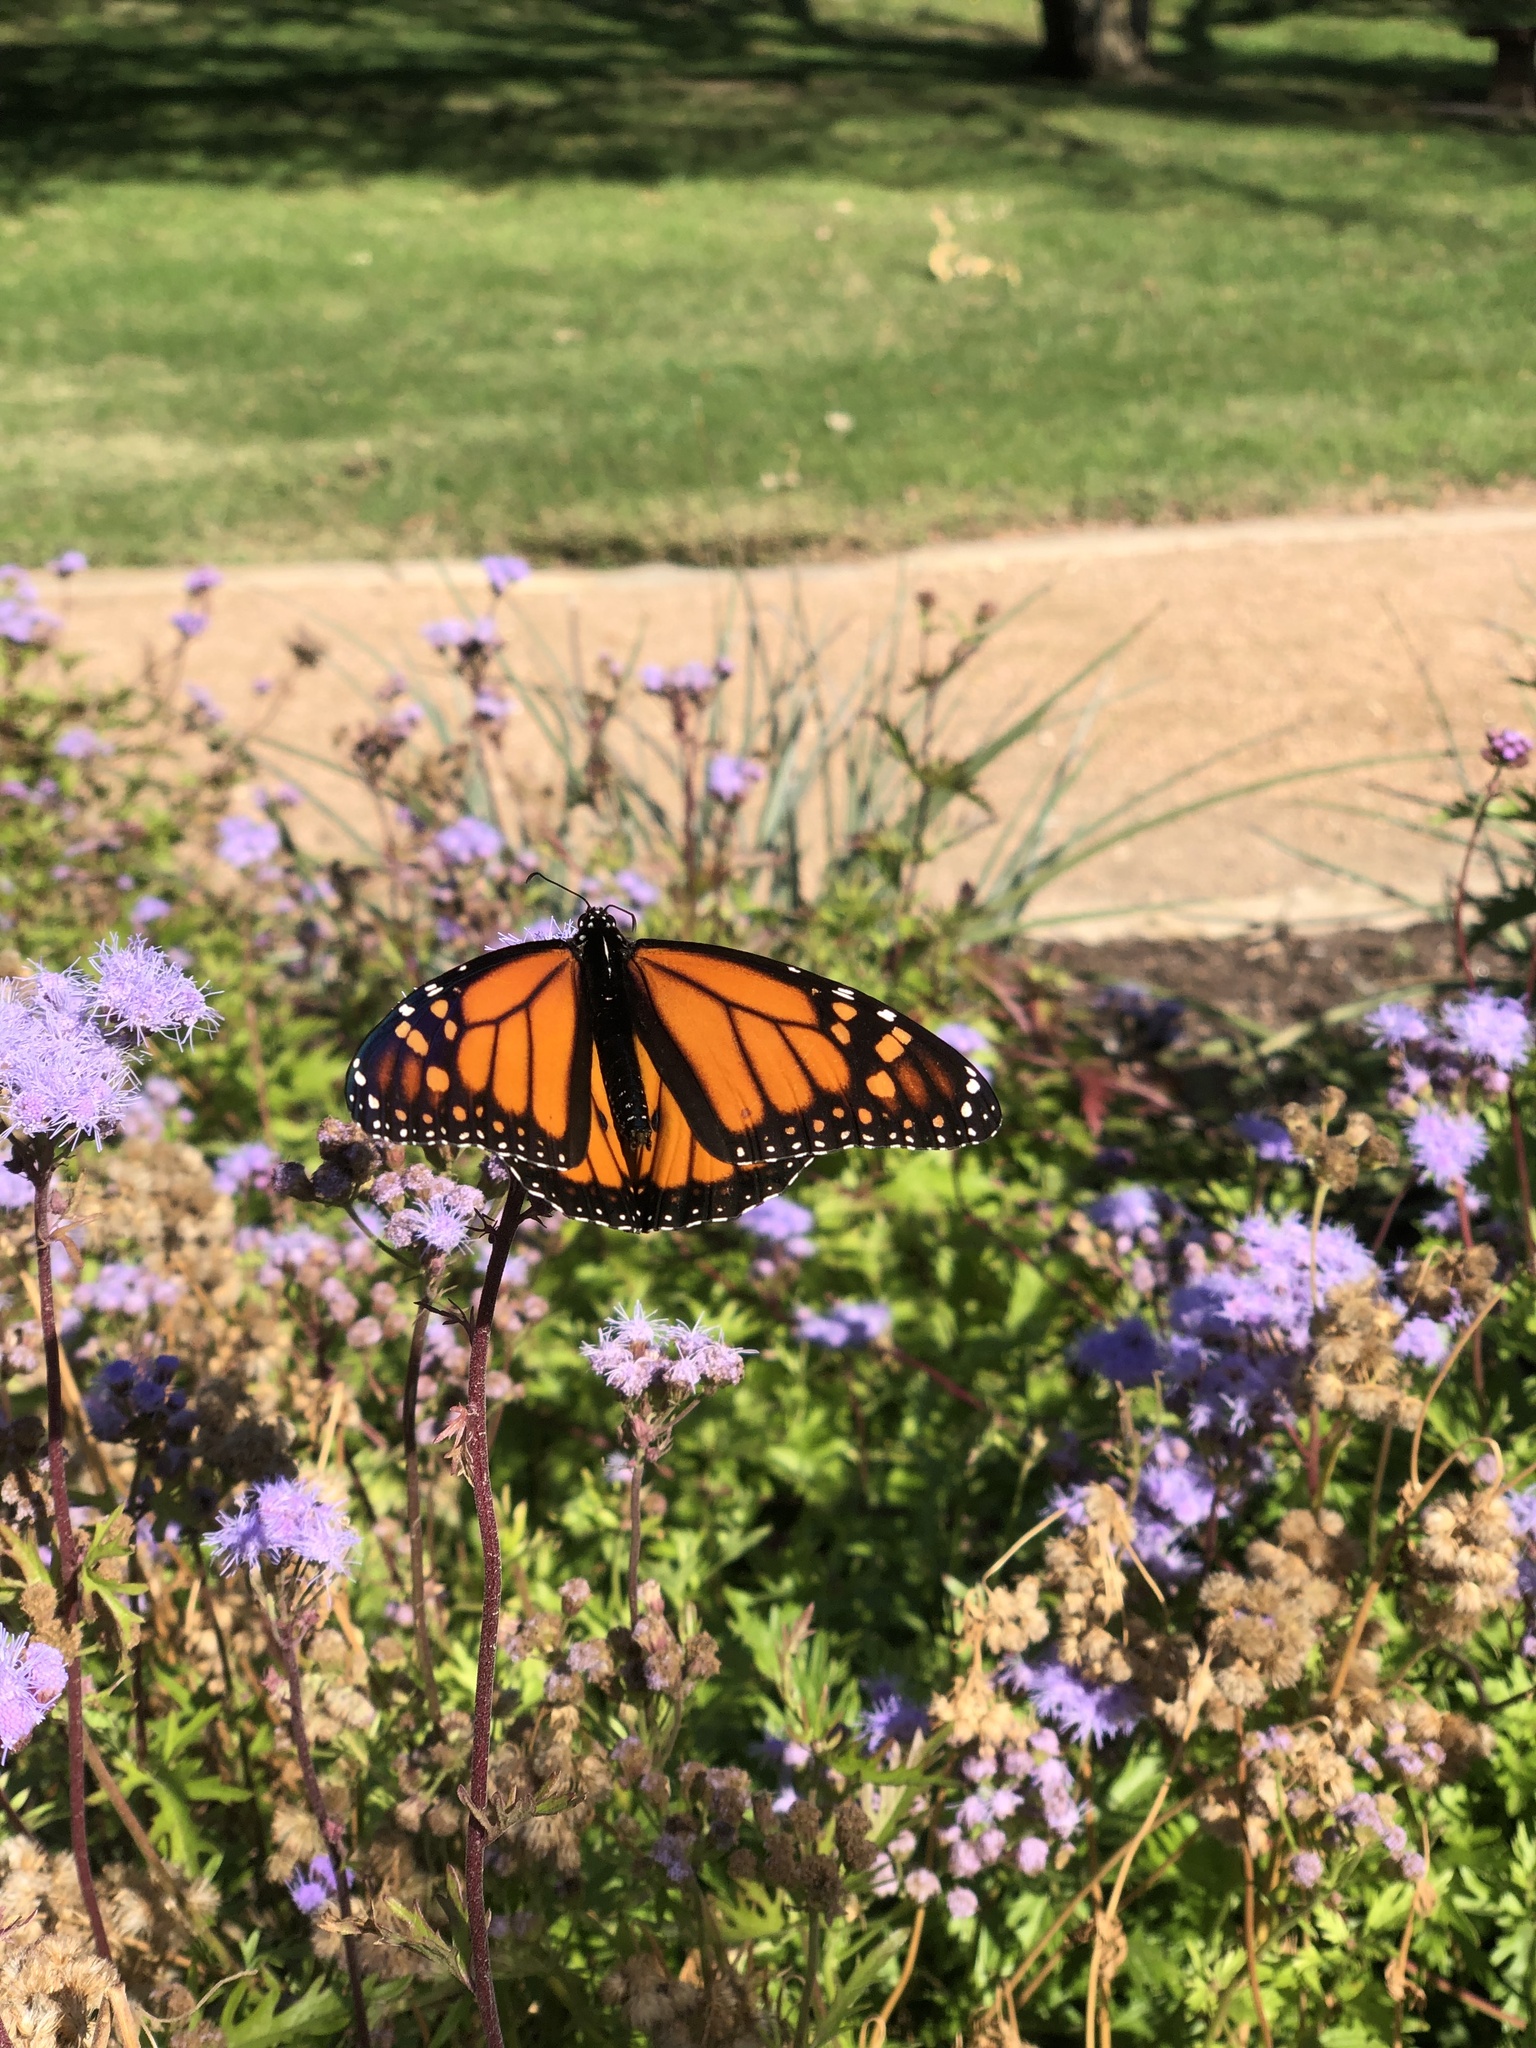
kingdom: Animalia
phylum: Arthropoda
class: Insecta
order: Lepidoptera
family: Nymphalidae
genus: Danaus
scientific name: Danaus plexippus
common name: Monarch
